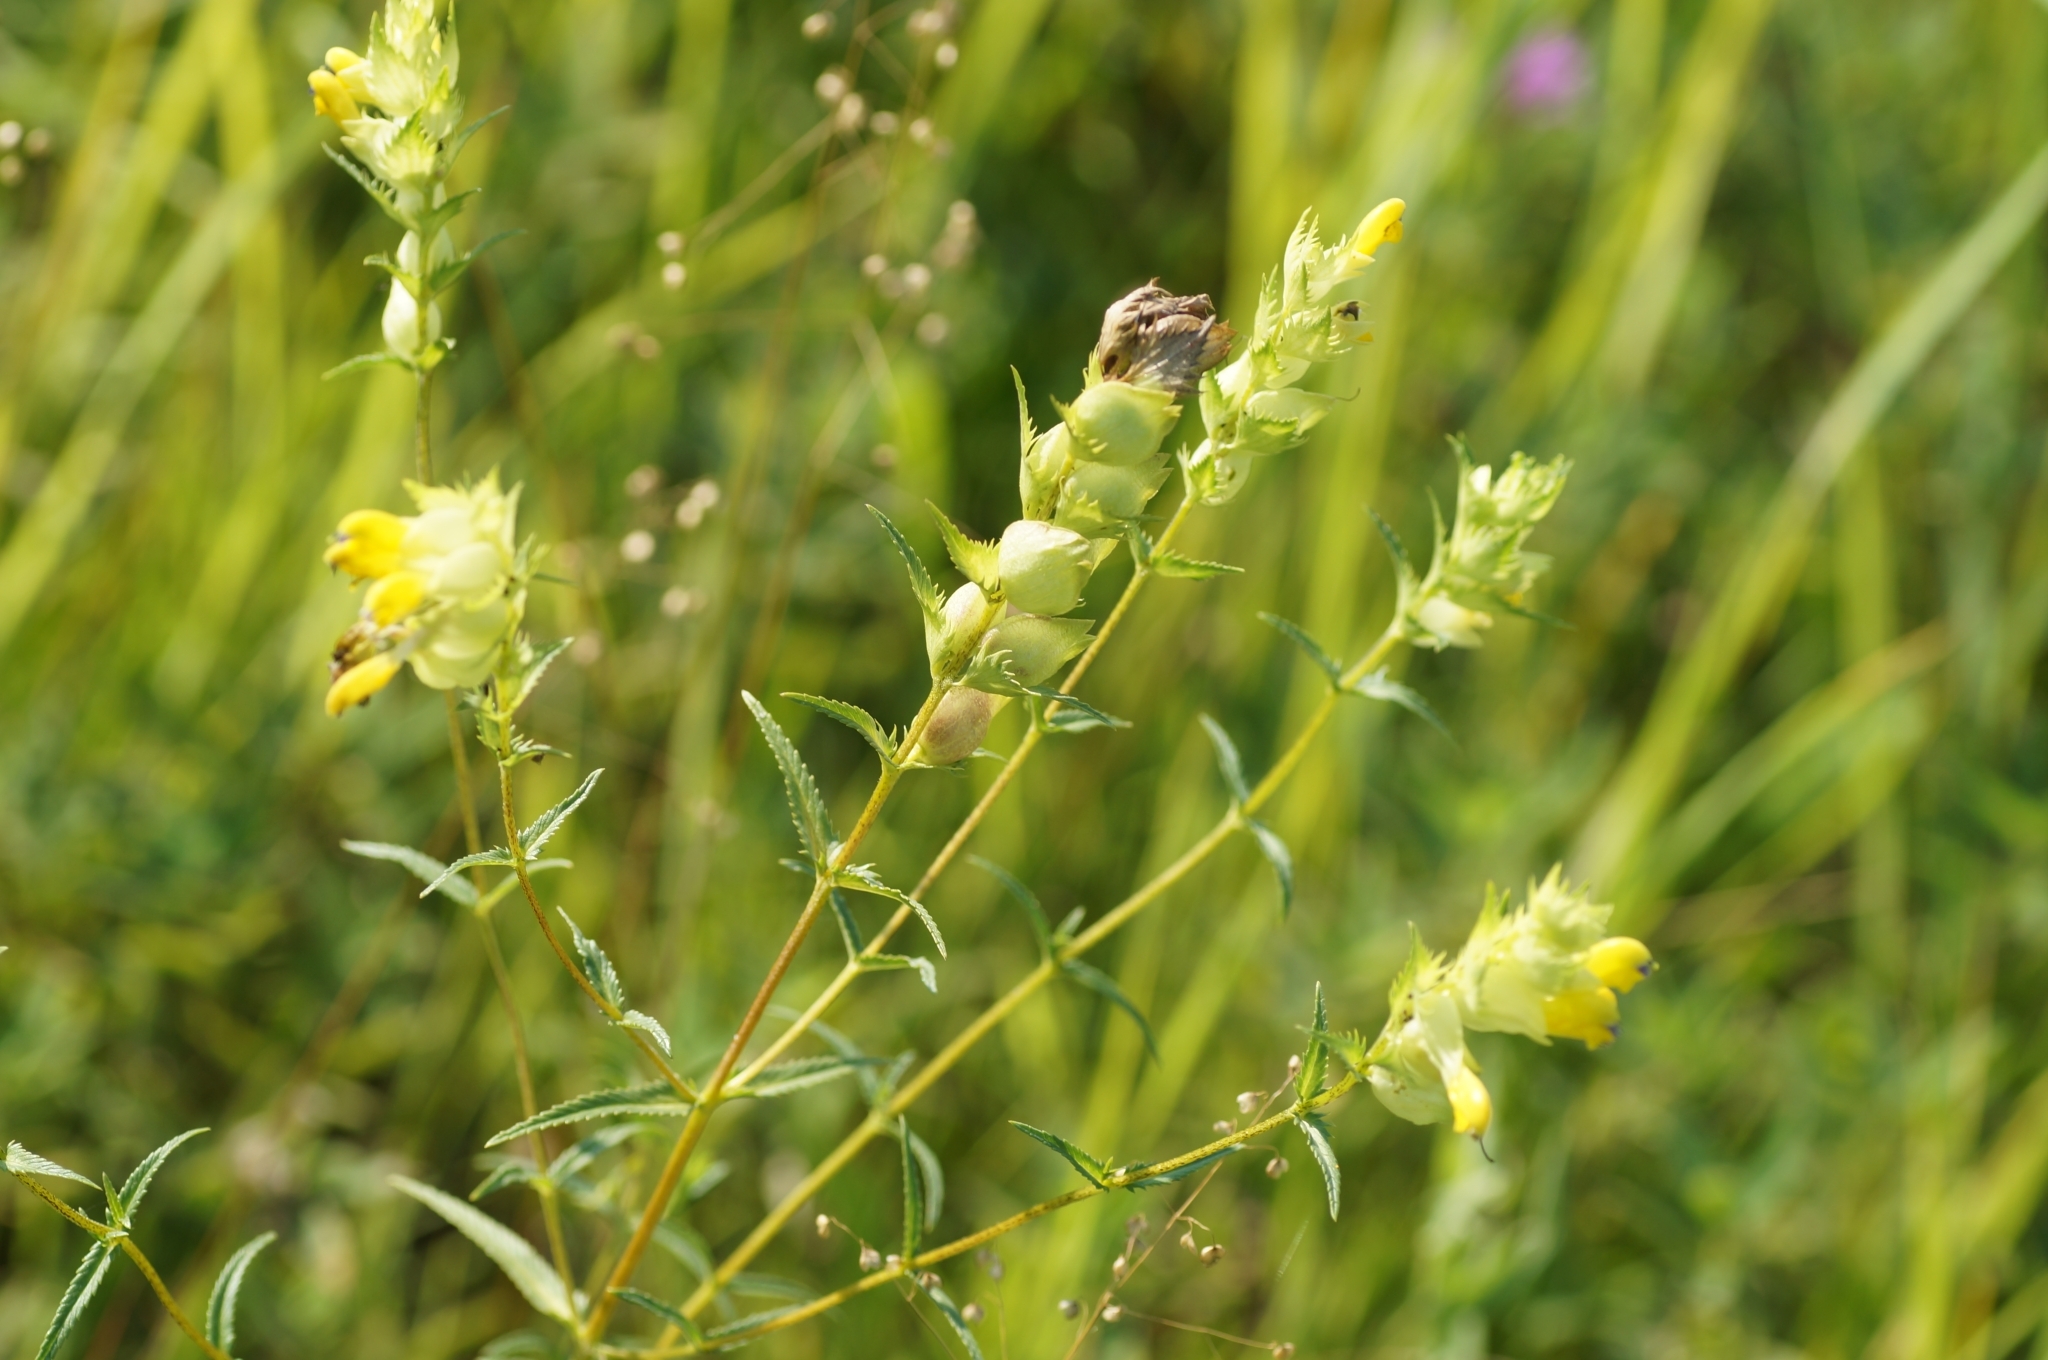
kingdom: Plantae
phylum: Tracheophyta
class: Magnoliopsida
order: Lamiales
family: Orobanchaceae
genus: Rhinanthus
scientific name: Rhinanthus serotinus
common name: Late-flowering yellow rattle
